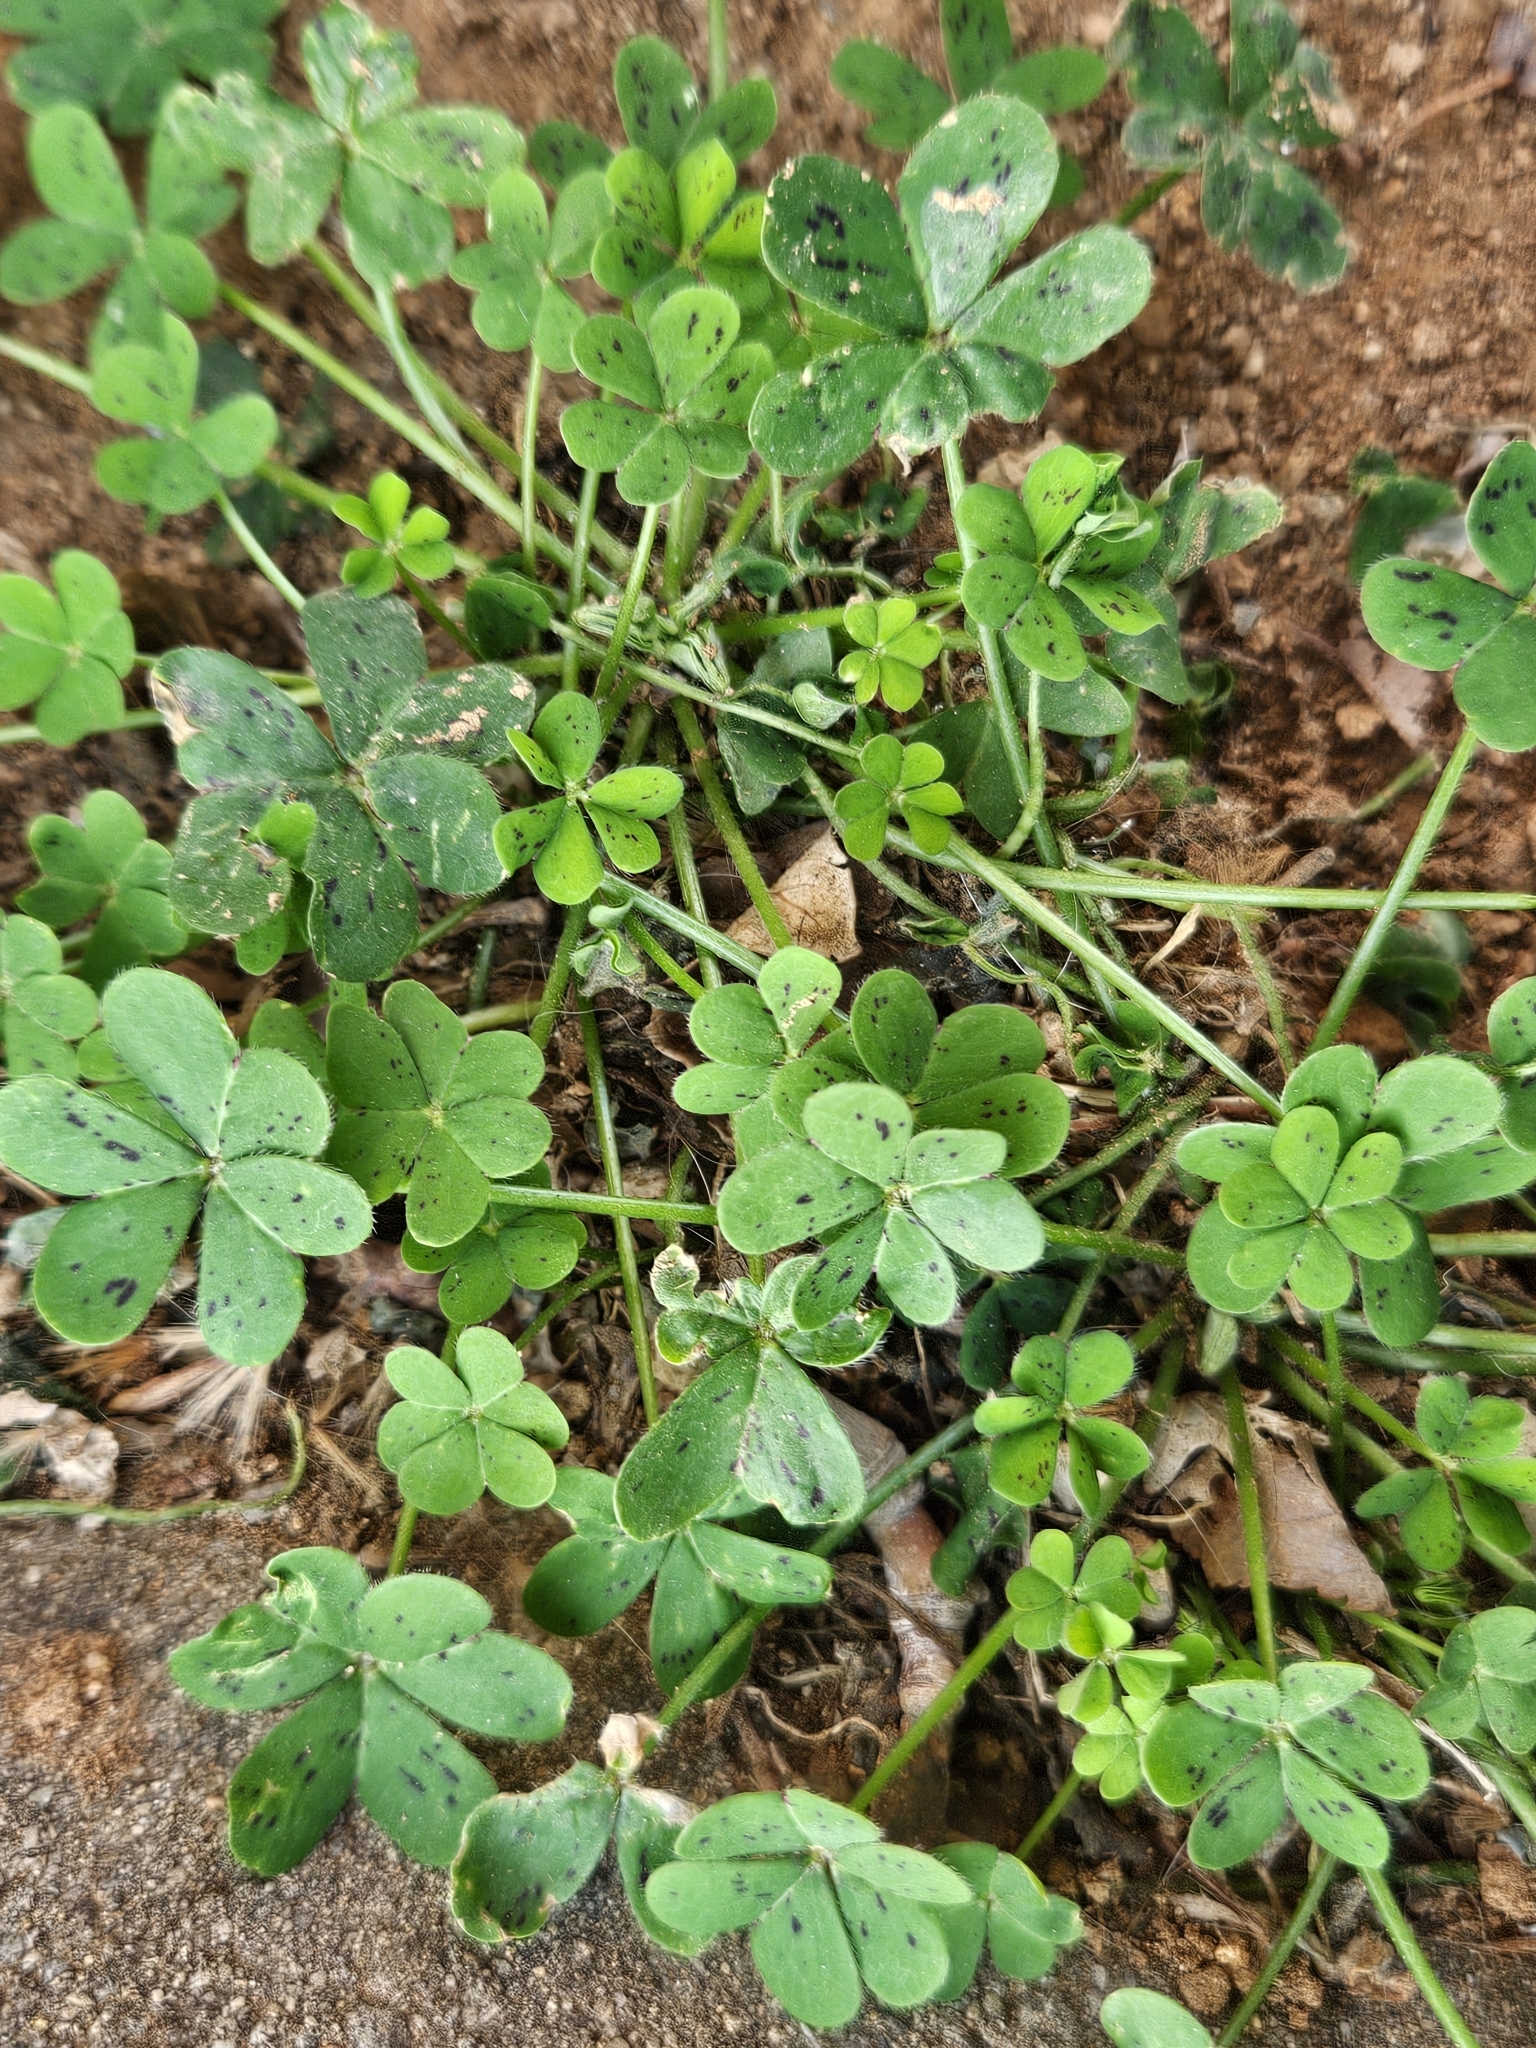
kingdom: Plantae
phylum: Tracheophyta
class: Magnoliopsida
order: Oxalidales
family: Oxalidaceae
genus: Oxalis
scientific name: Oxalis pes-caprae
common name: Bermuda-buttercup
